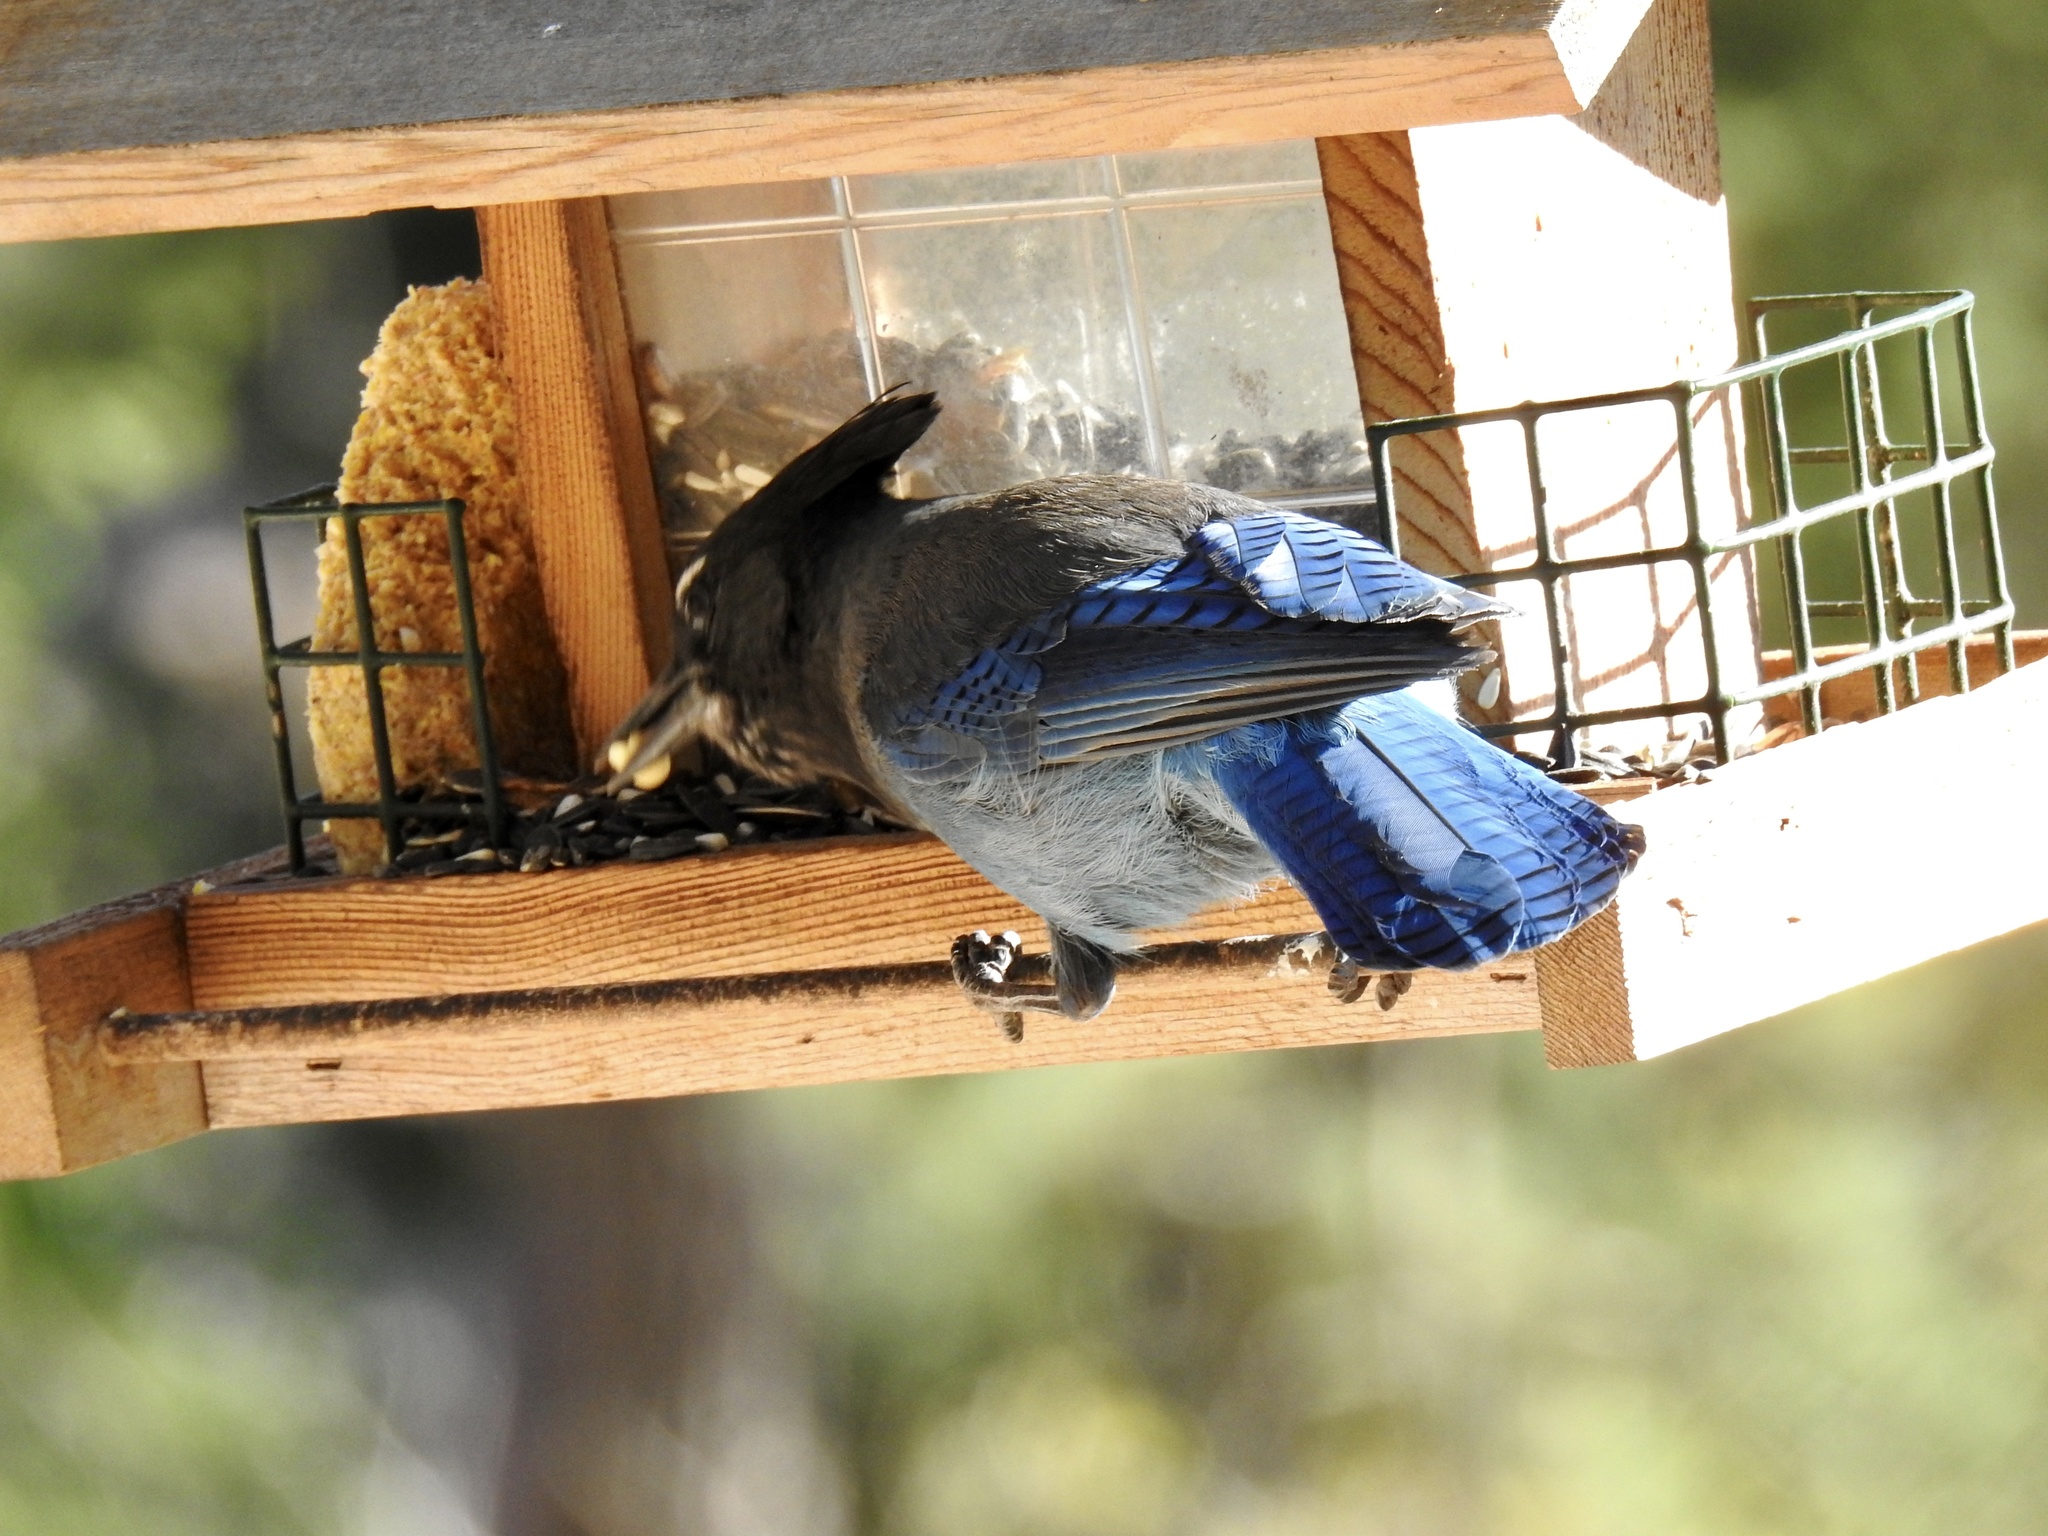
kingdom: Animalia
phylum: Chordata
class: Aves
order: Passeriformes
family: Corvidae
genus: Cyanocitta
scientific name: Cyanocitta stelleri
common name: Steller's jay
